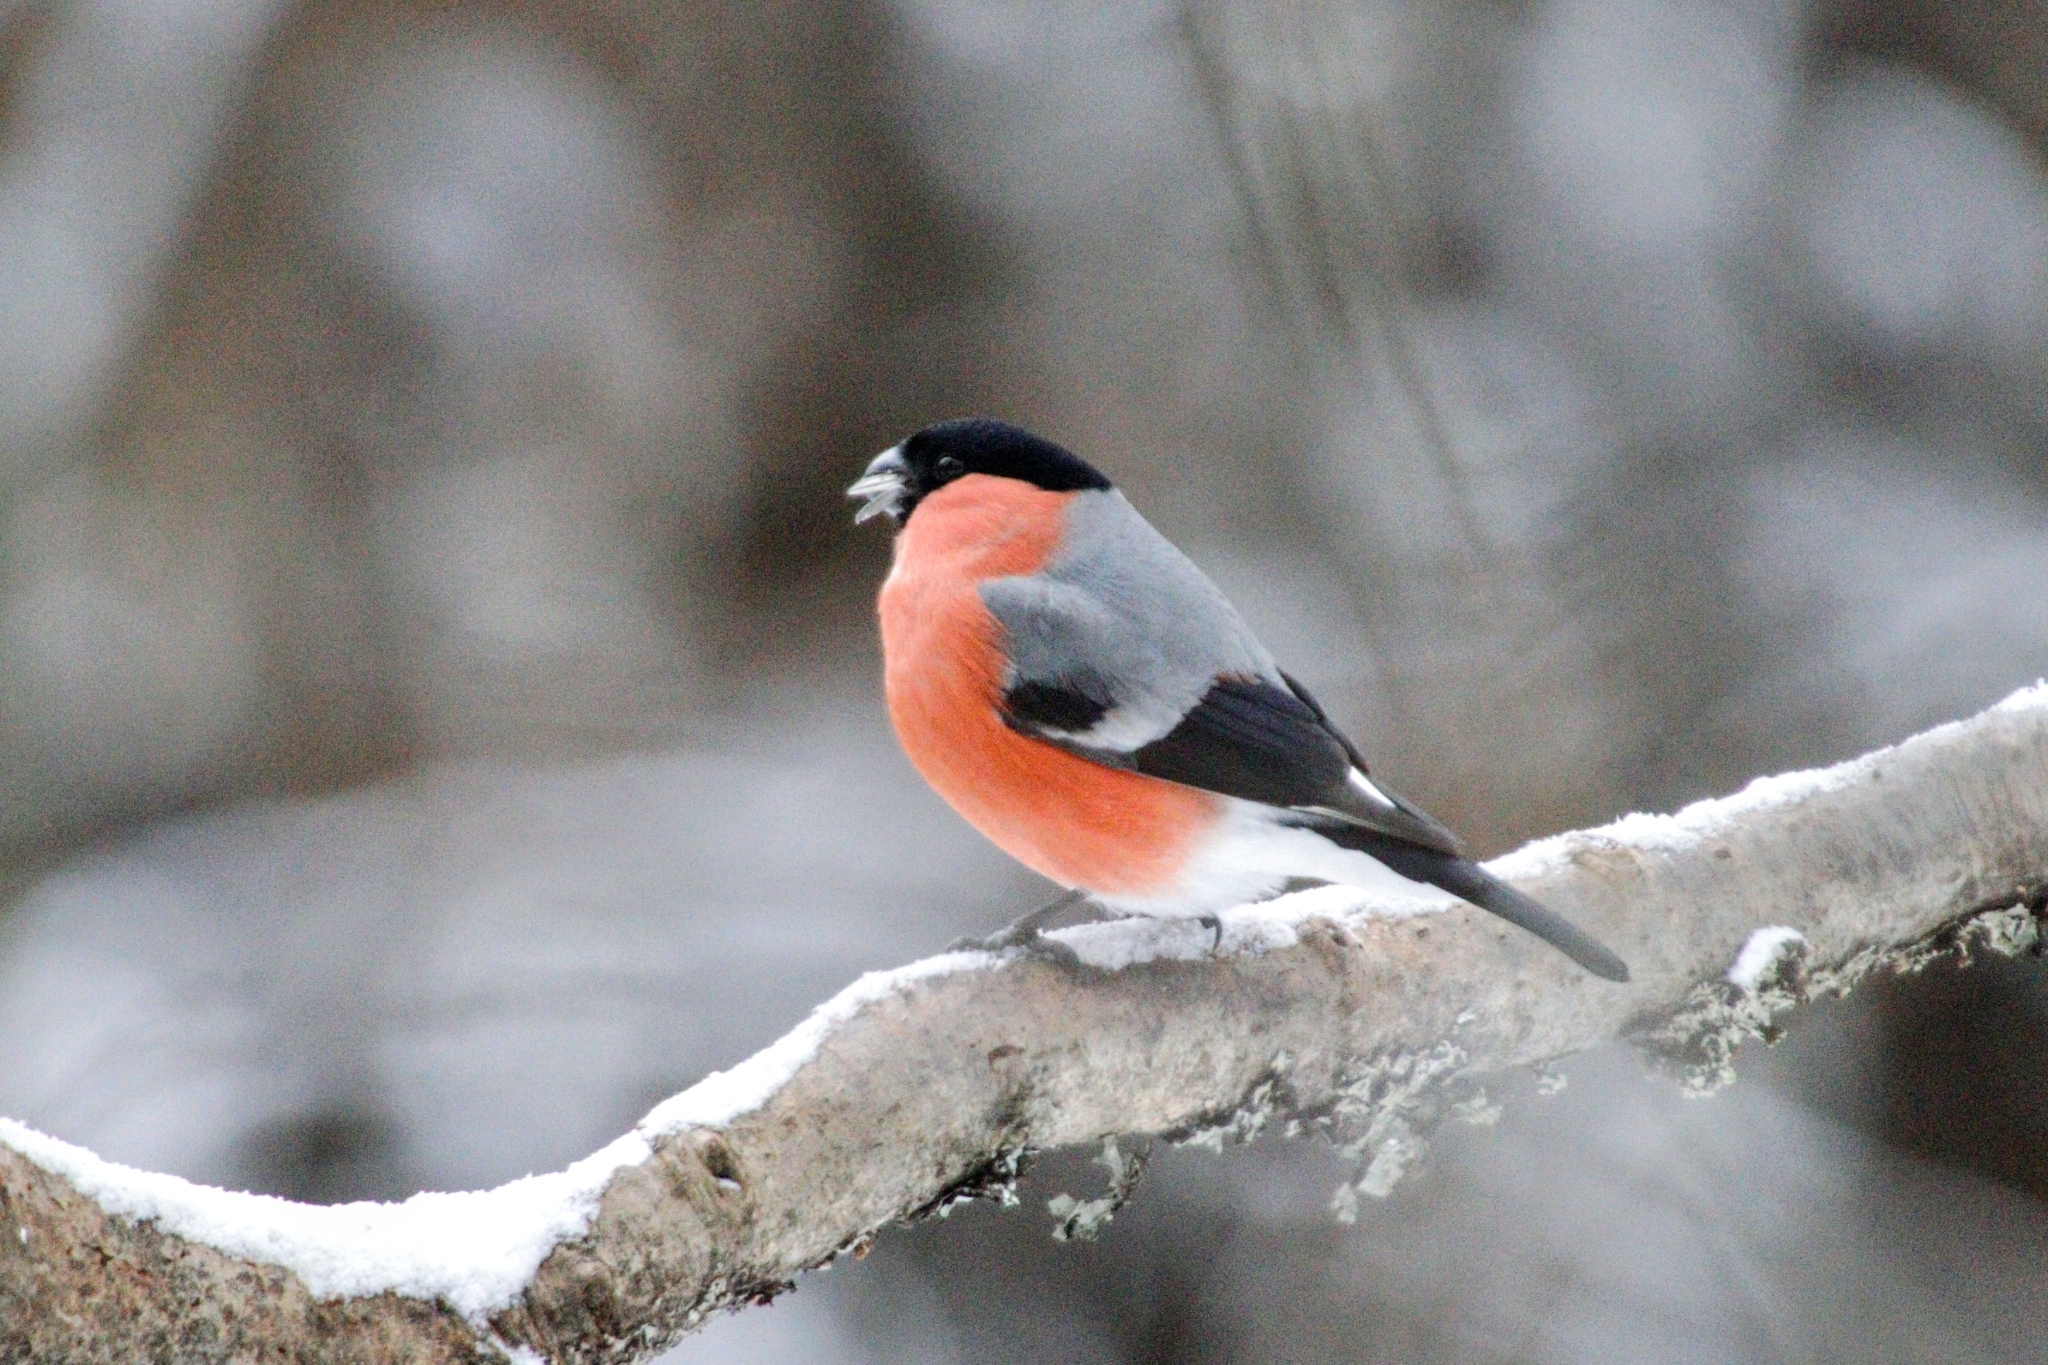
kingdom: Animalia
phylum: Chordata
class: Aves
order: Passeriformes
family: Fringillidae
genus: Pyrrhula
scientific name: Pyrrhula pyrrhula
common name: Eurasian bullfinch
